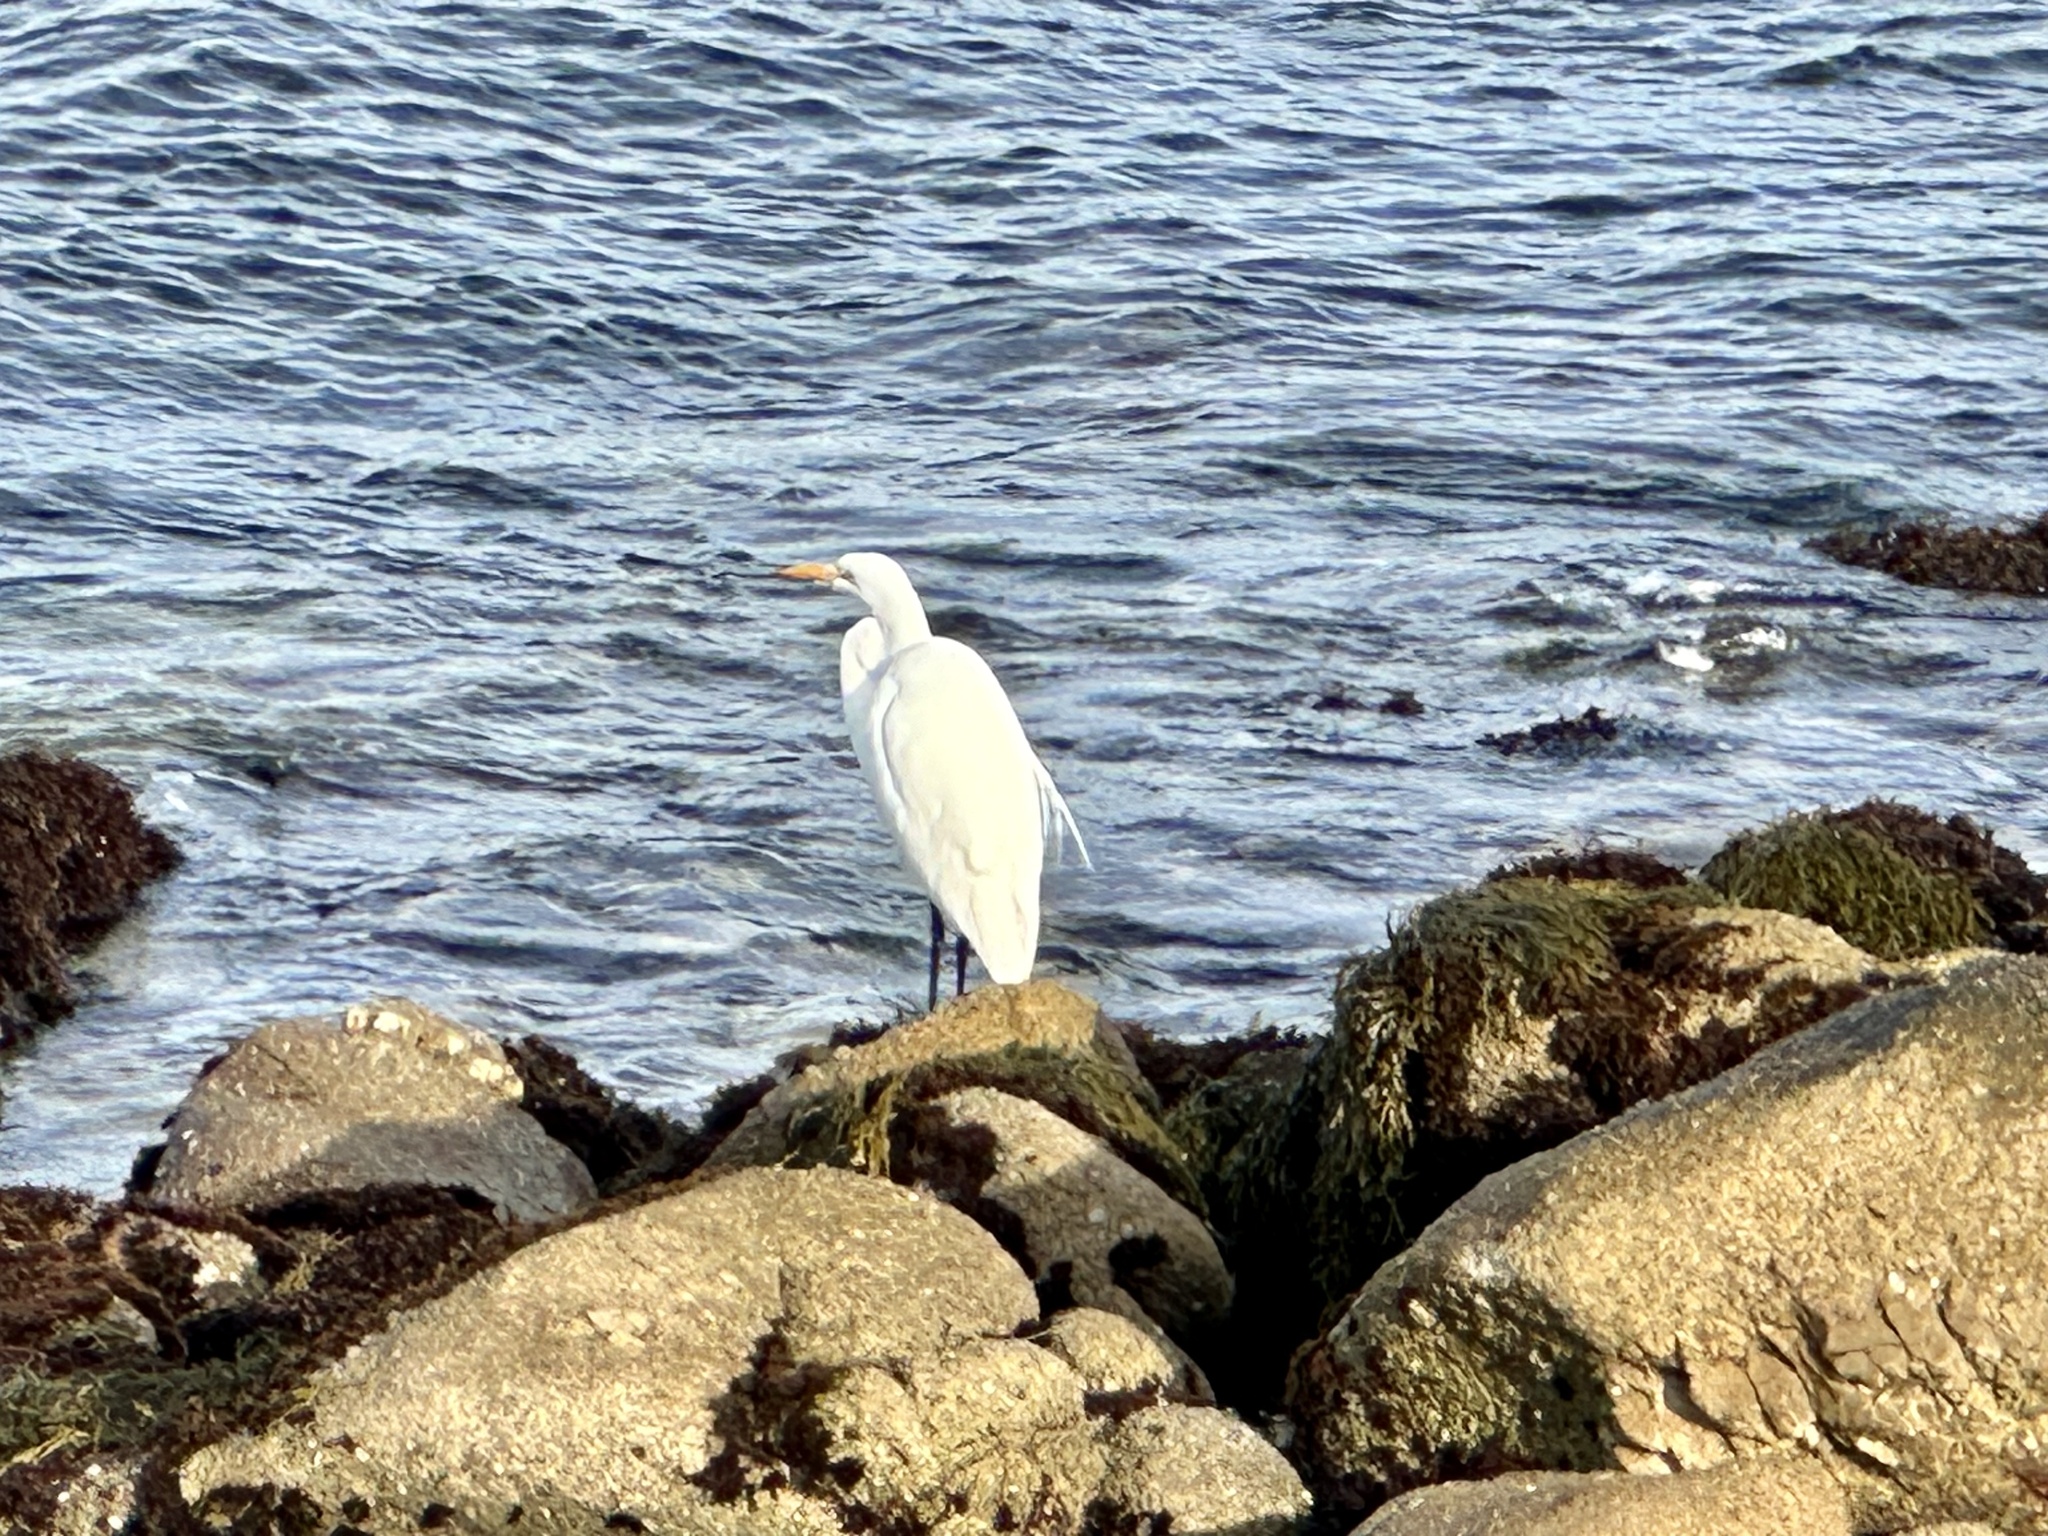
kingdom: Animalia
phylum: Chordata
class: Aves
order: Pelecaniformes
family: Ardeidae
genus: Ardea
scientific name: Ardea alba
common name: Great egret
